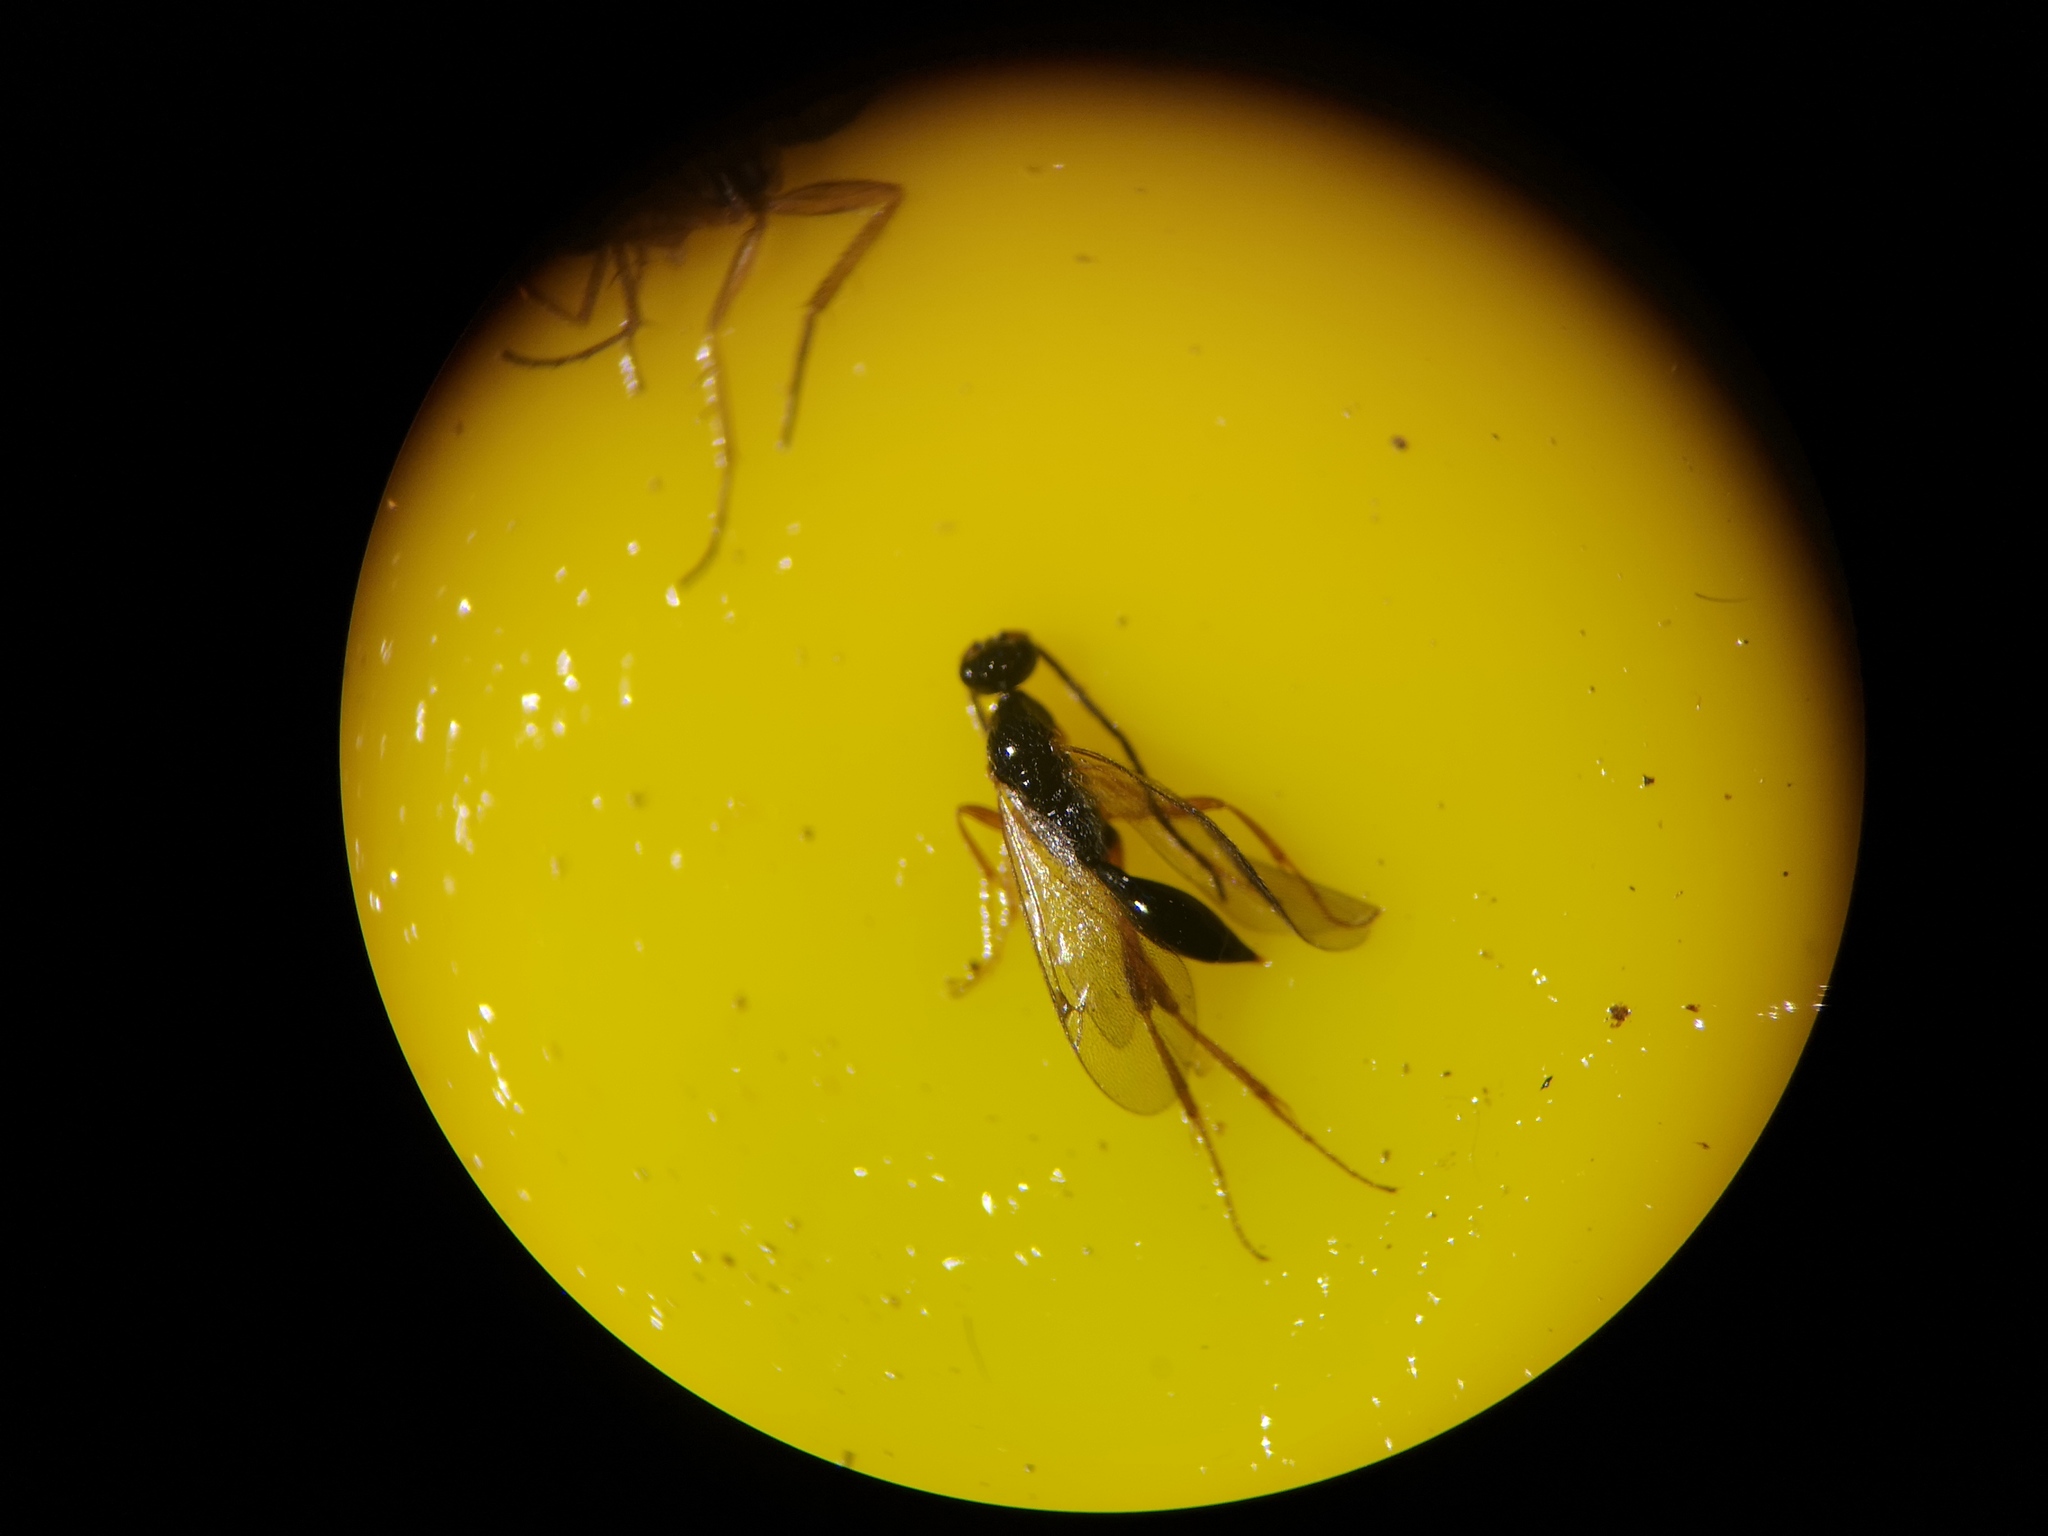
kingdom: Animalia
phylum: Arthropoda
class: Insecta
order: Hymenoptera
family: Proctotrupidae
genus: Phaneroserphus
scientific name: Phaneroserphus calcar
